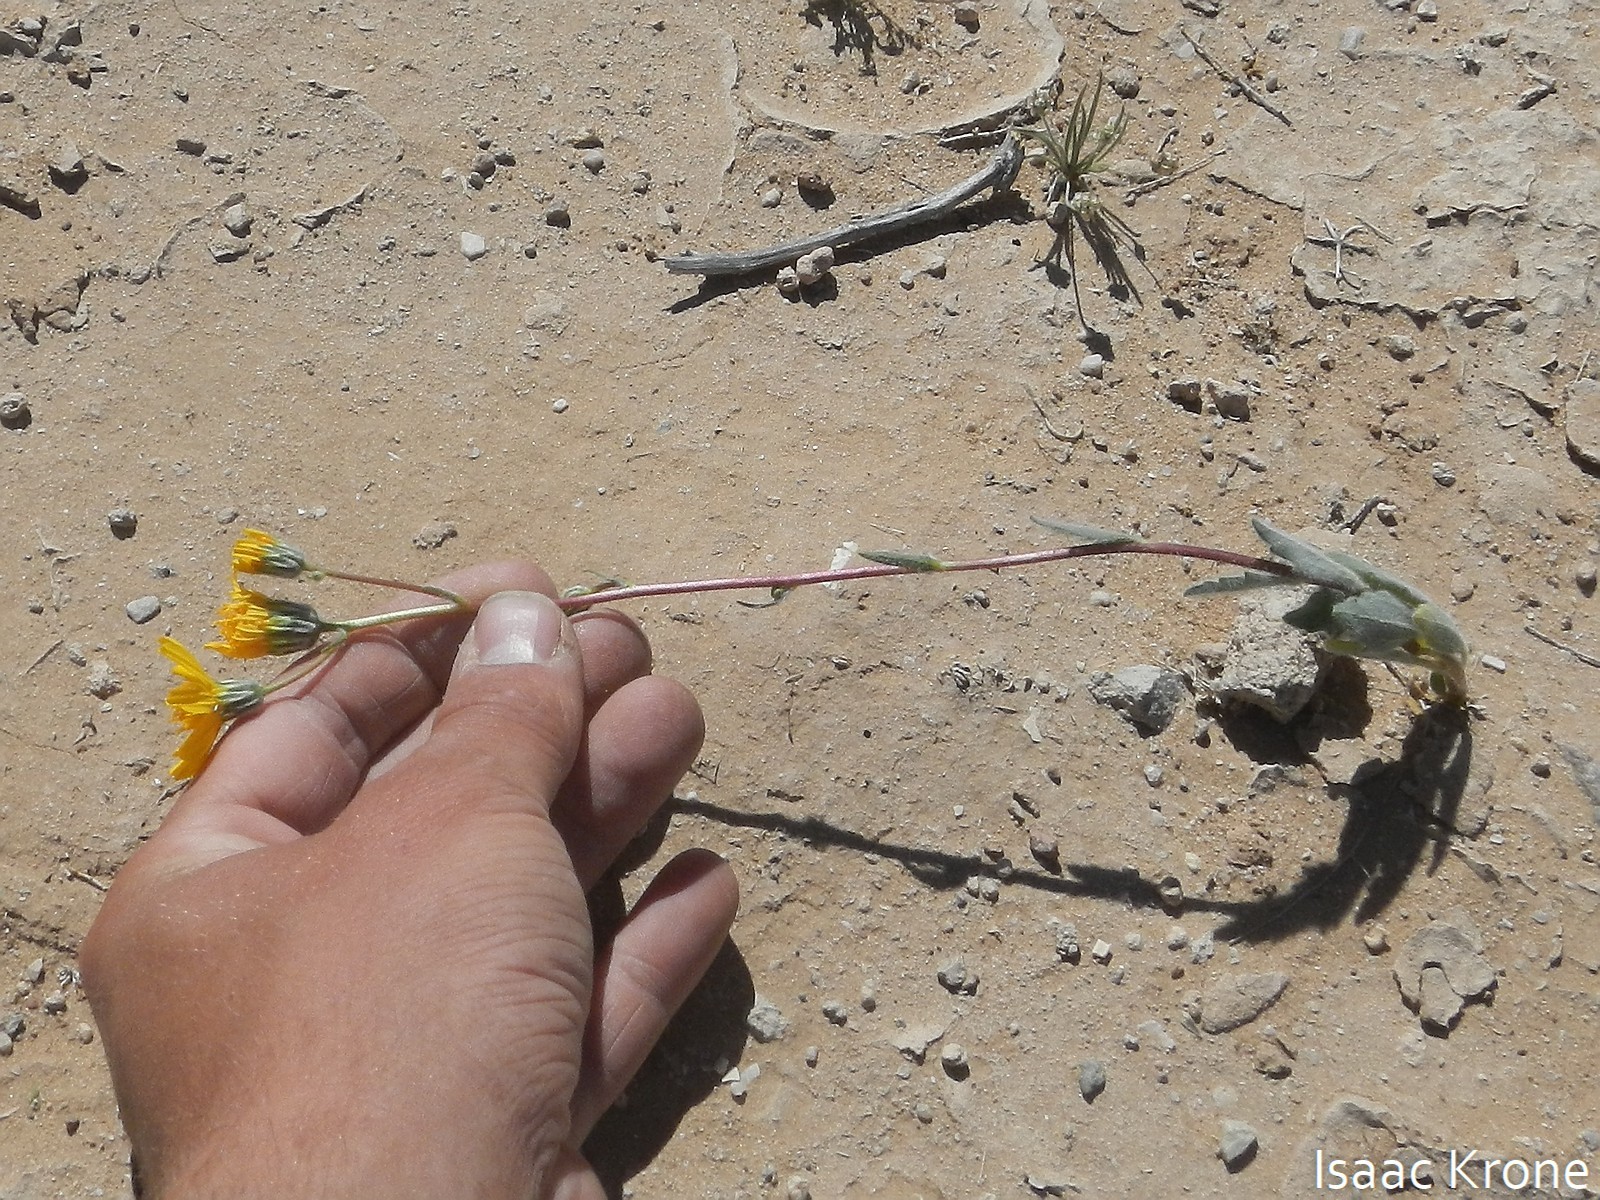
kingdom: Plantae
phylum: Tracheophyta
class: Magnoliopsida
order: Asterales
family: Asteraceae
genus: Geraea
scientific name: Geraea canescens
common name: Desert-gold
